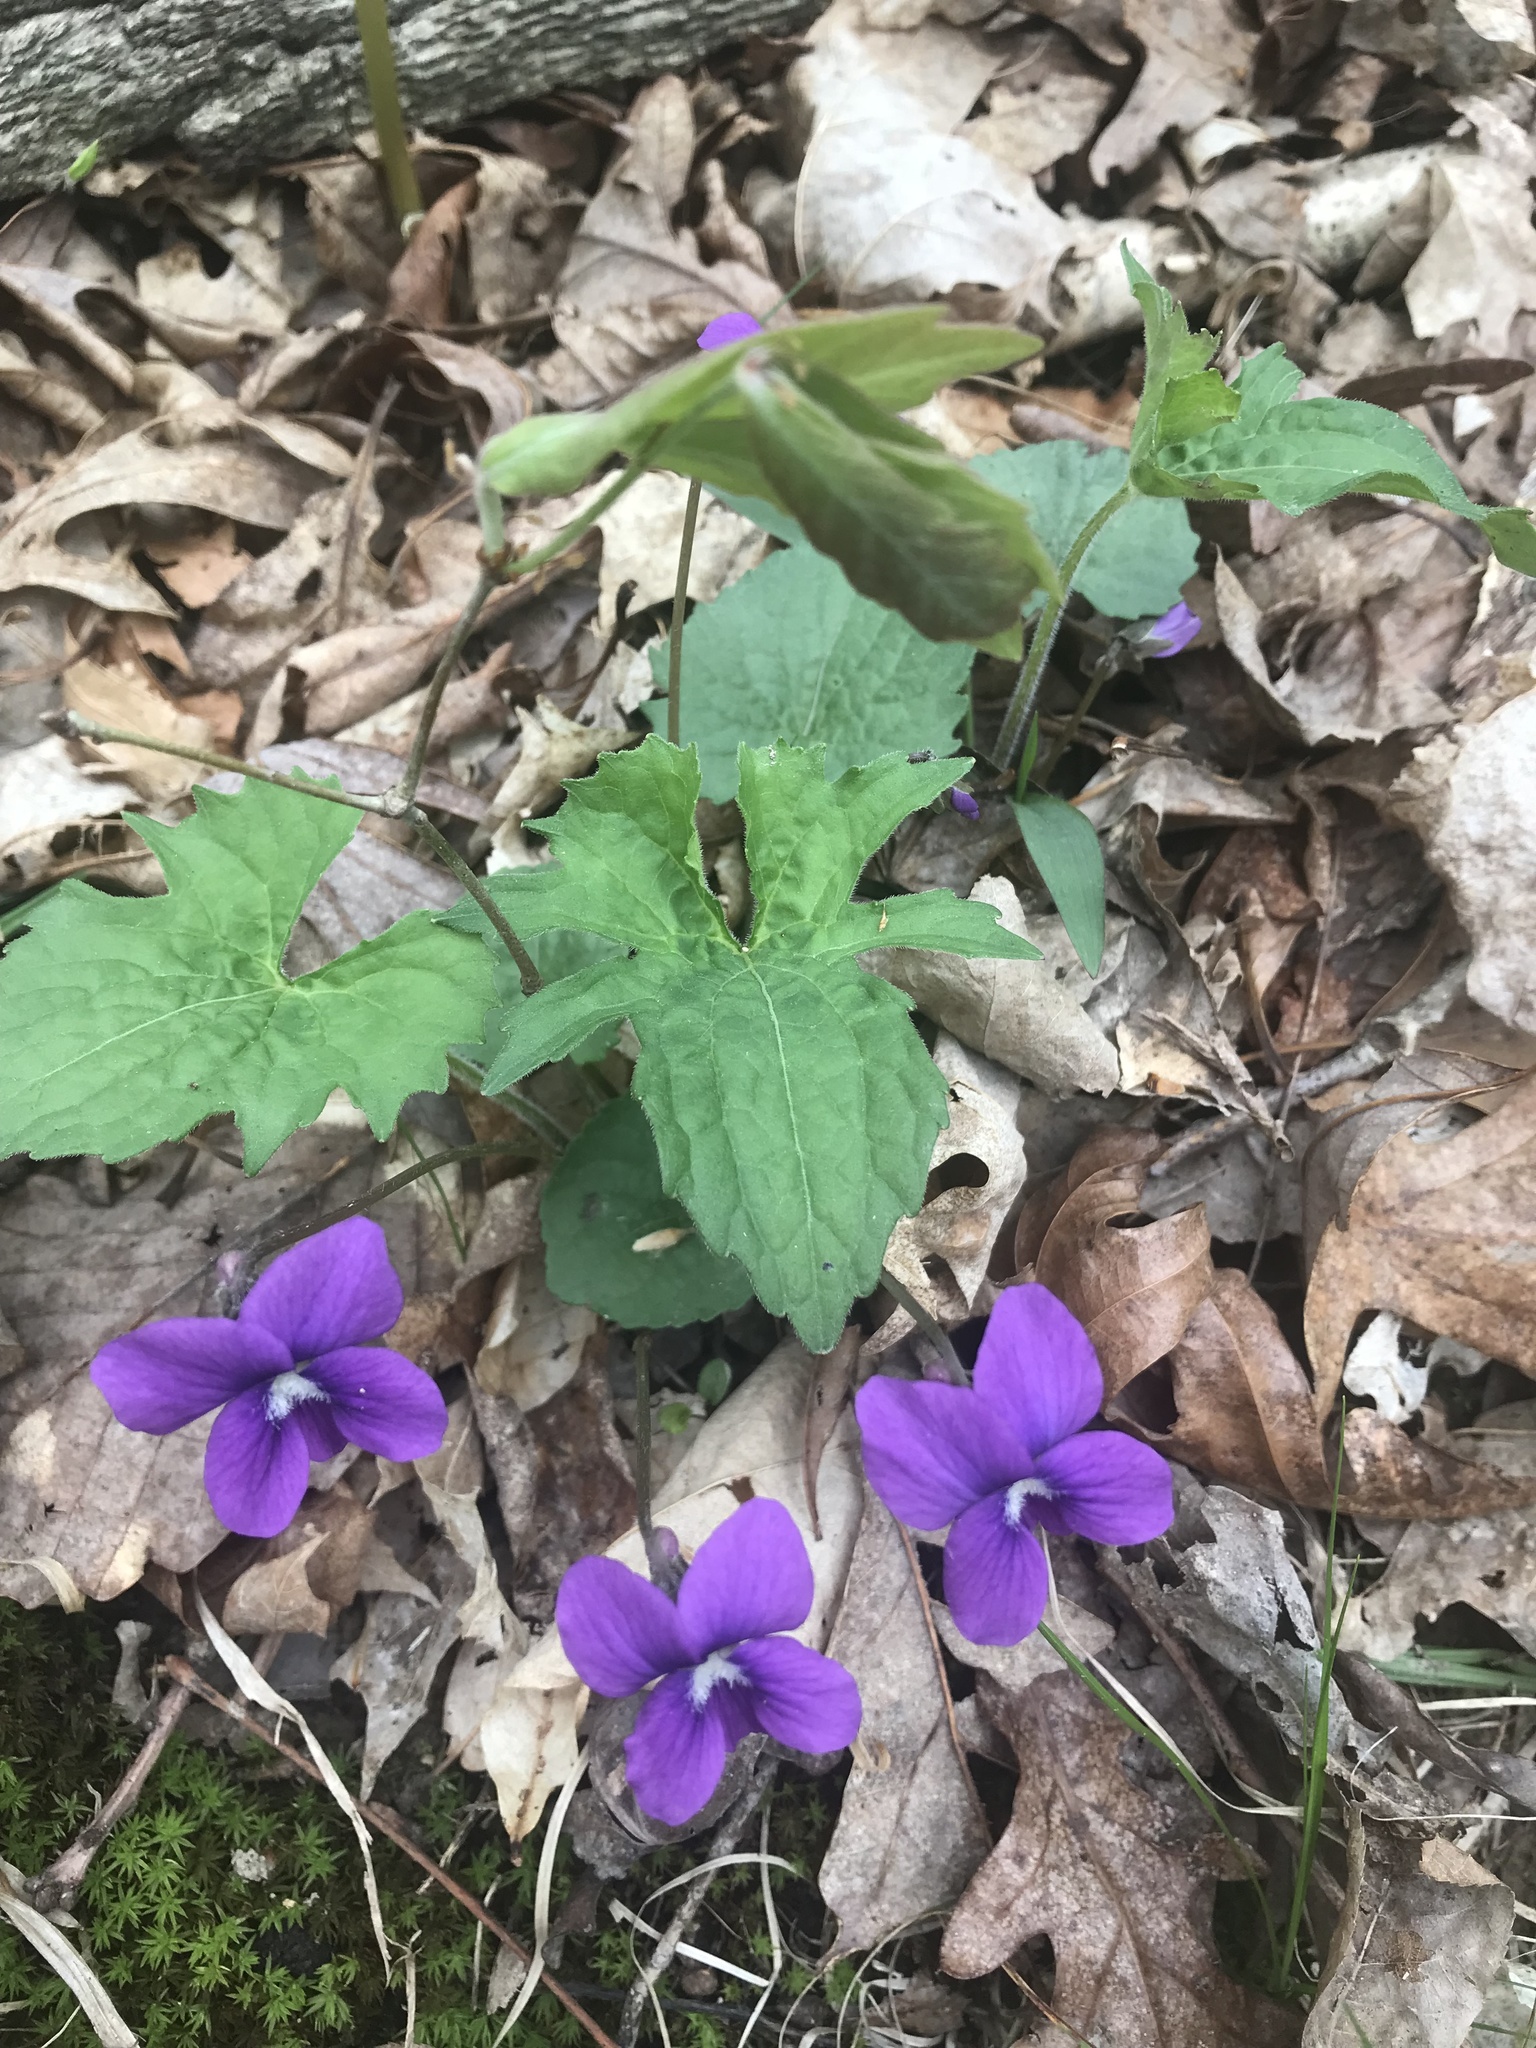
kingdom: Plantae
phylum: Tracheophyta
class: Magnoliopsida
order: Malpighiales
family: Violaceae
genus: Viola
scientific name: Viola palmata
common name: Early blue violet
